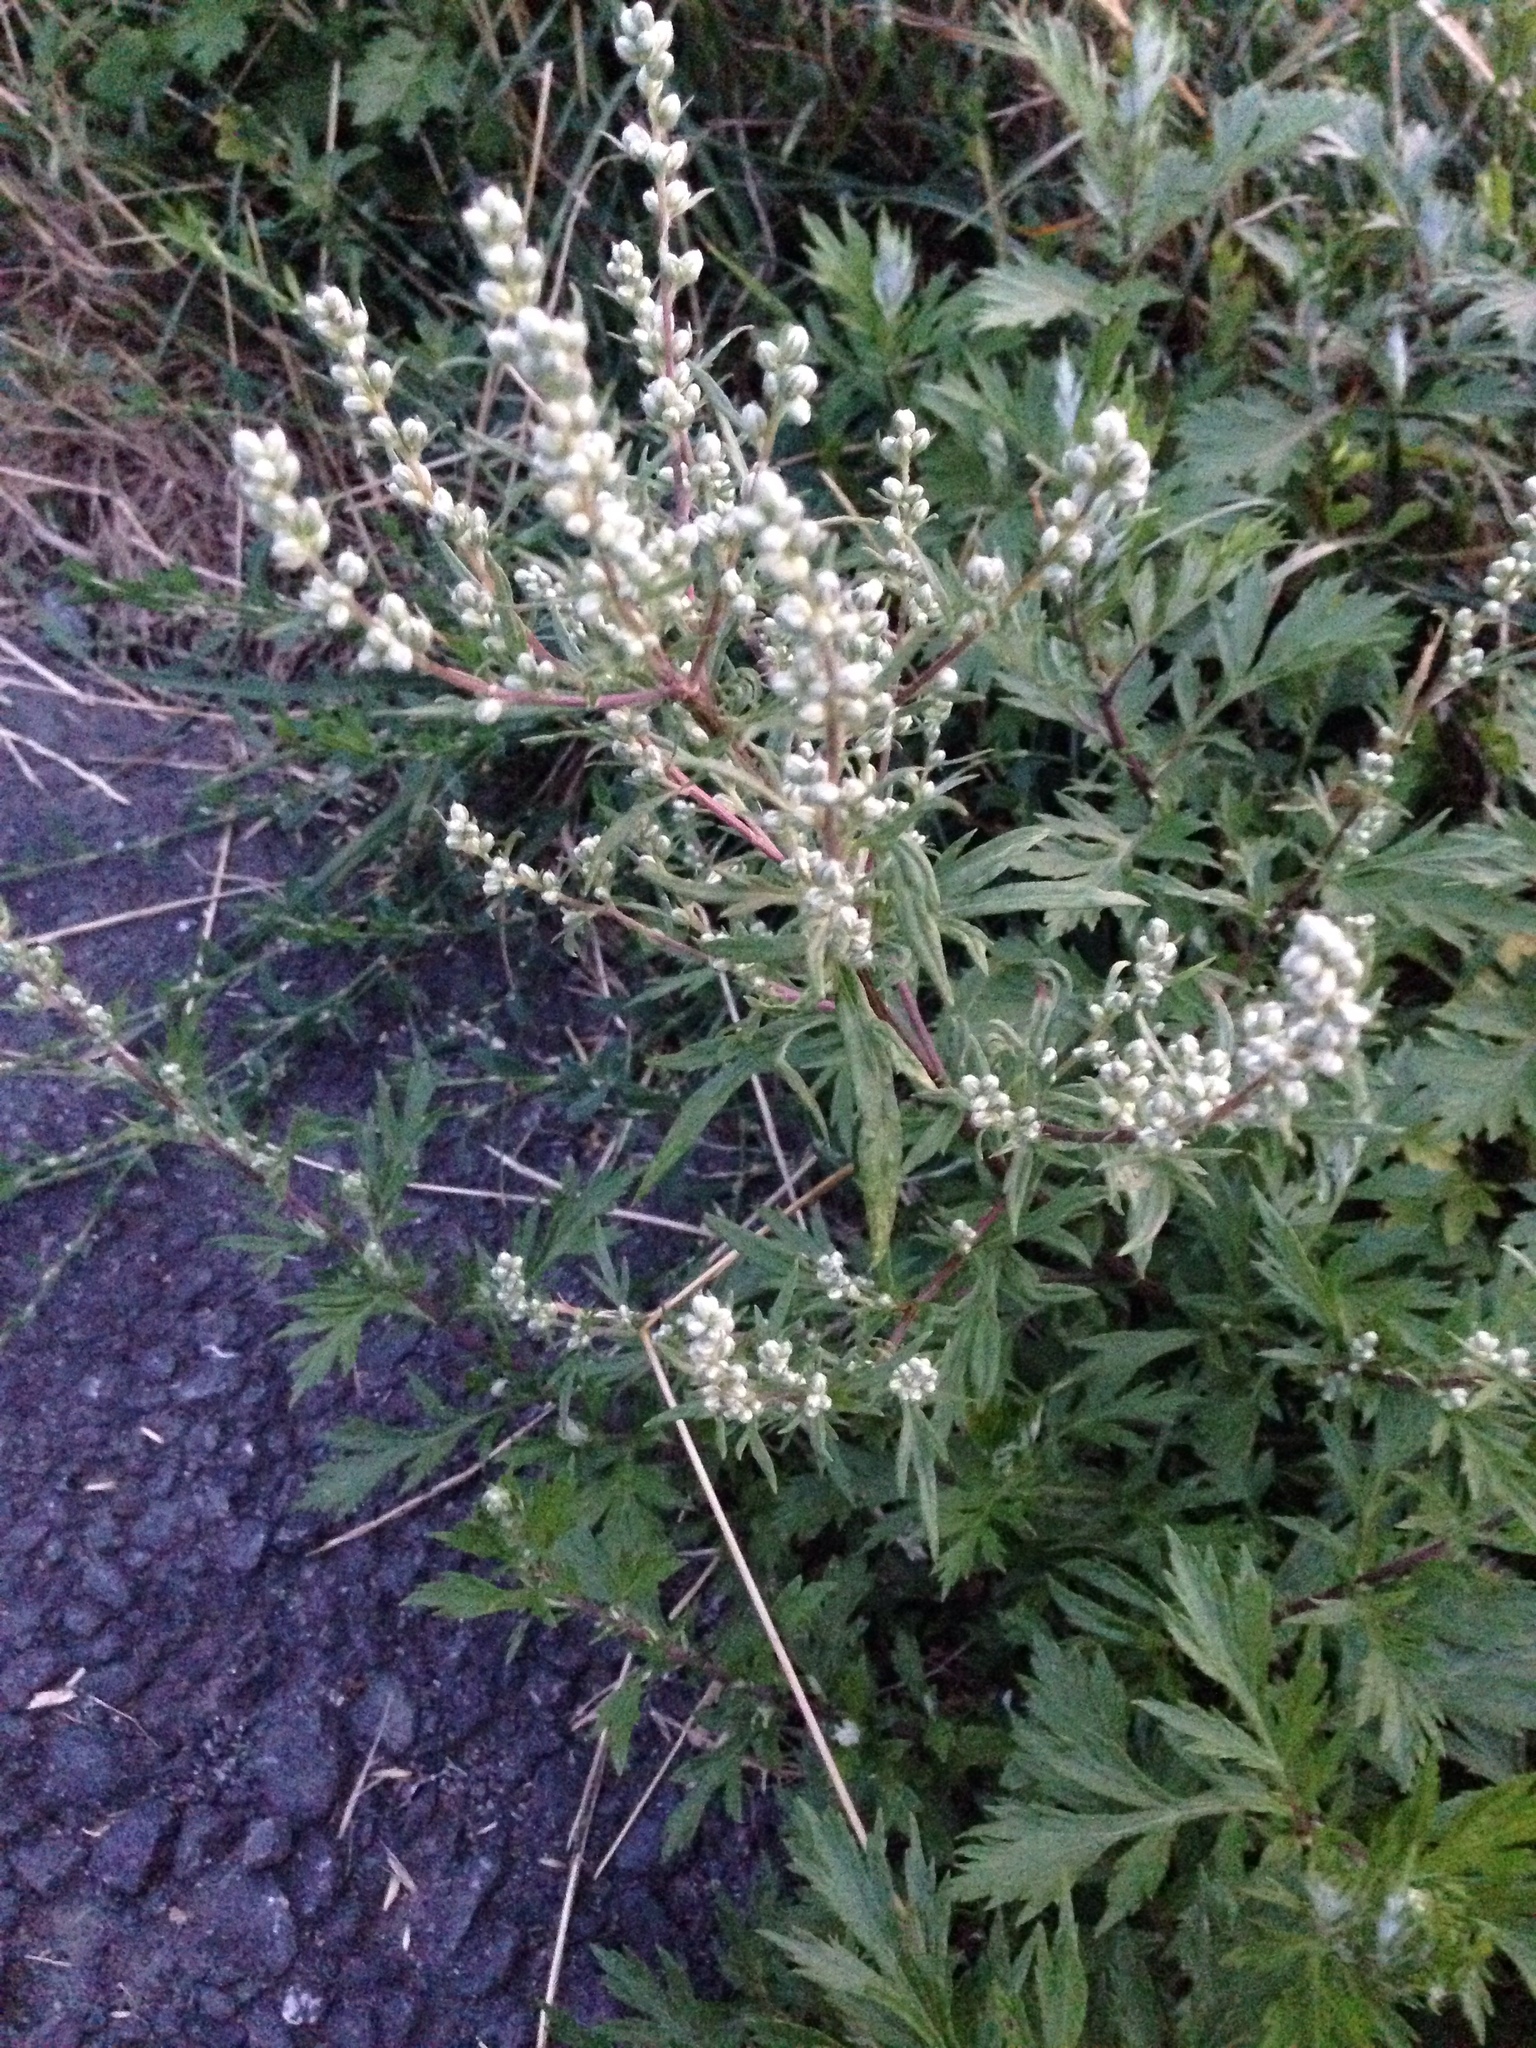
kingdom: Plantae
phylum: Tracheophyta
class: Magnoliopsida
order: Asterales
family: Asteraceae
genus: Artemisia
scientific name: Artemisia vulgaris
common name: Mugwort
